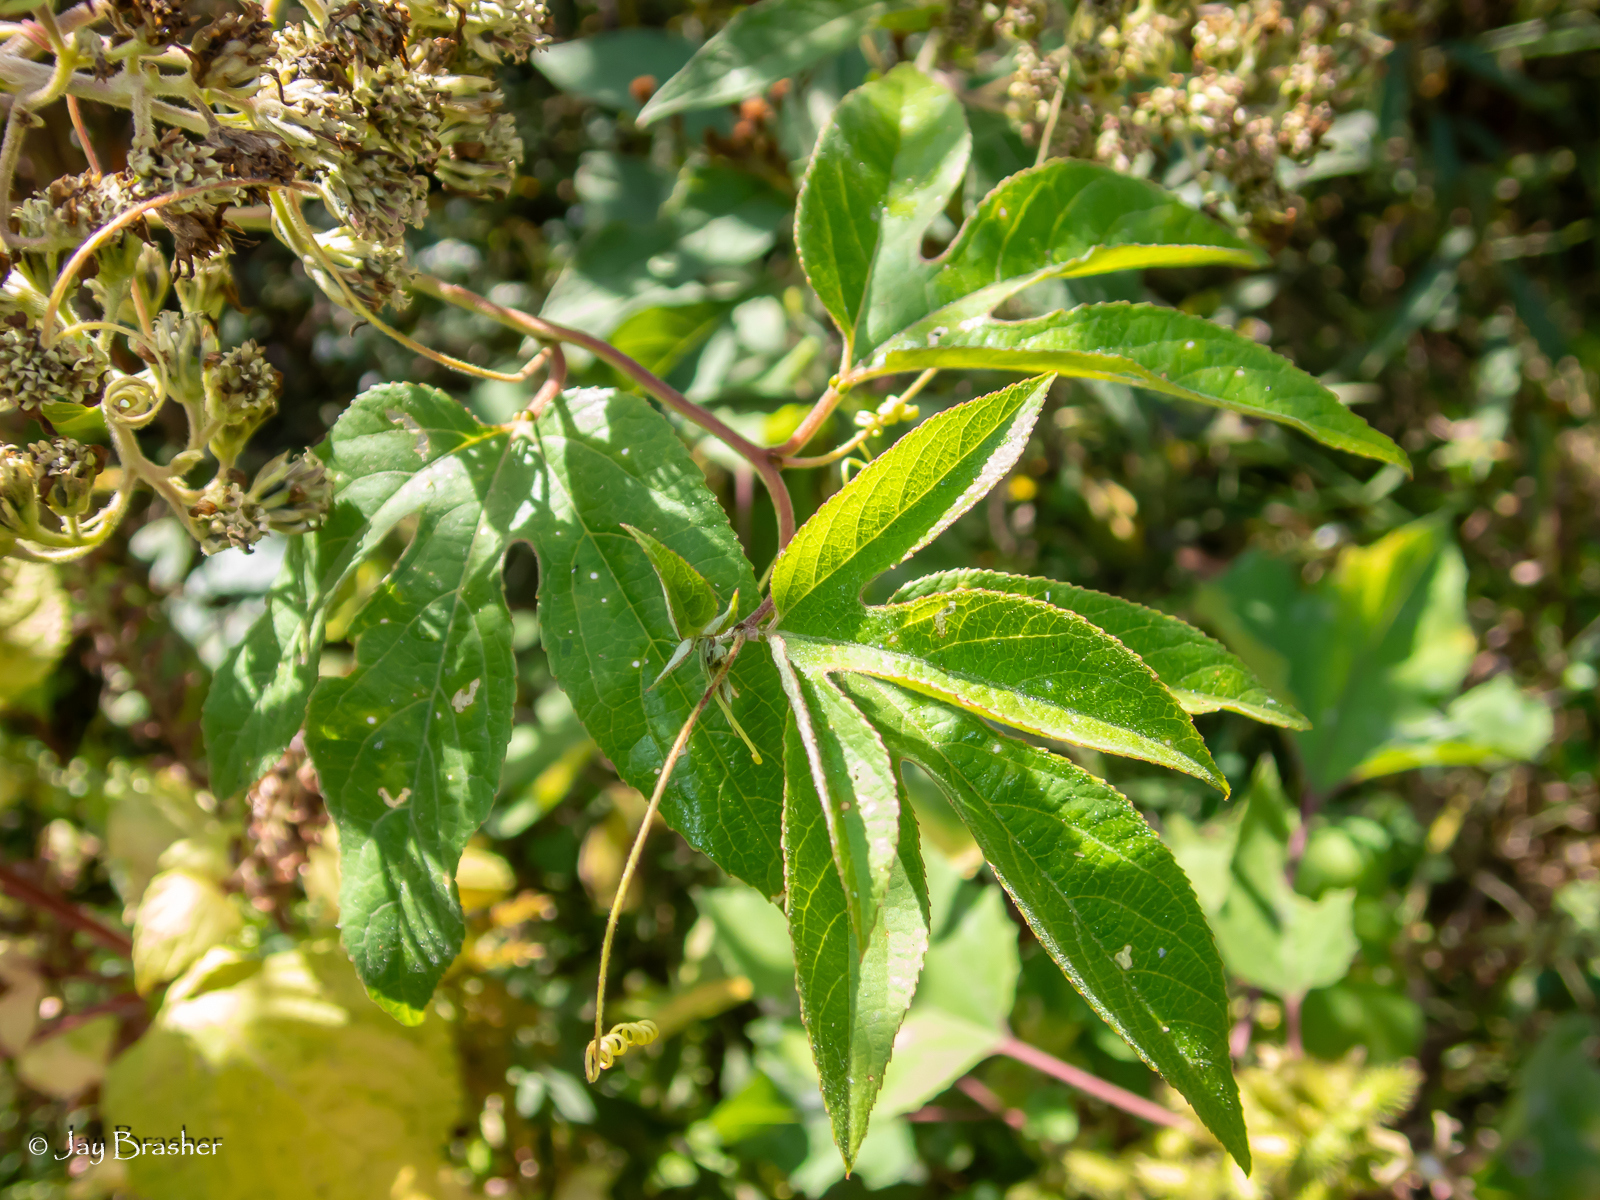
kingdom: Plantae
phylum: Tracheophyta
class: Magnoliopsida
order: Malpighiales
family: Passifloraceae
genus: Passiflora
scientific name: Passiflora incarnata
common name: Apricot-vine
